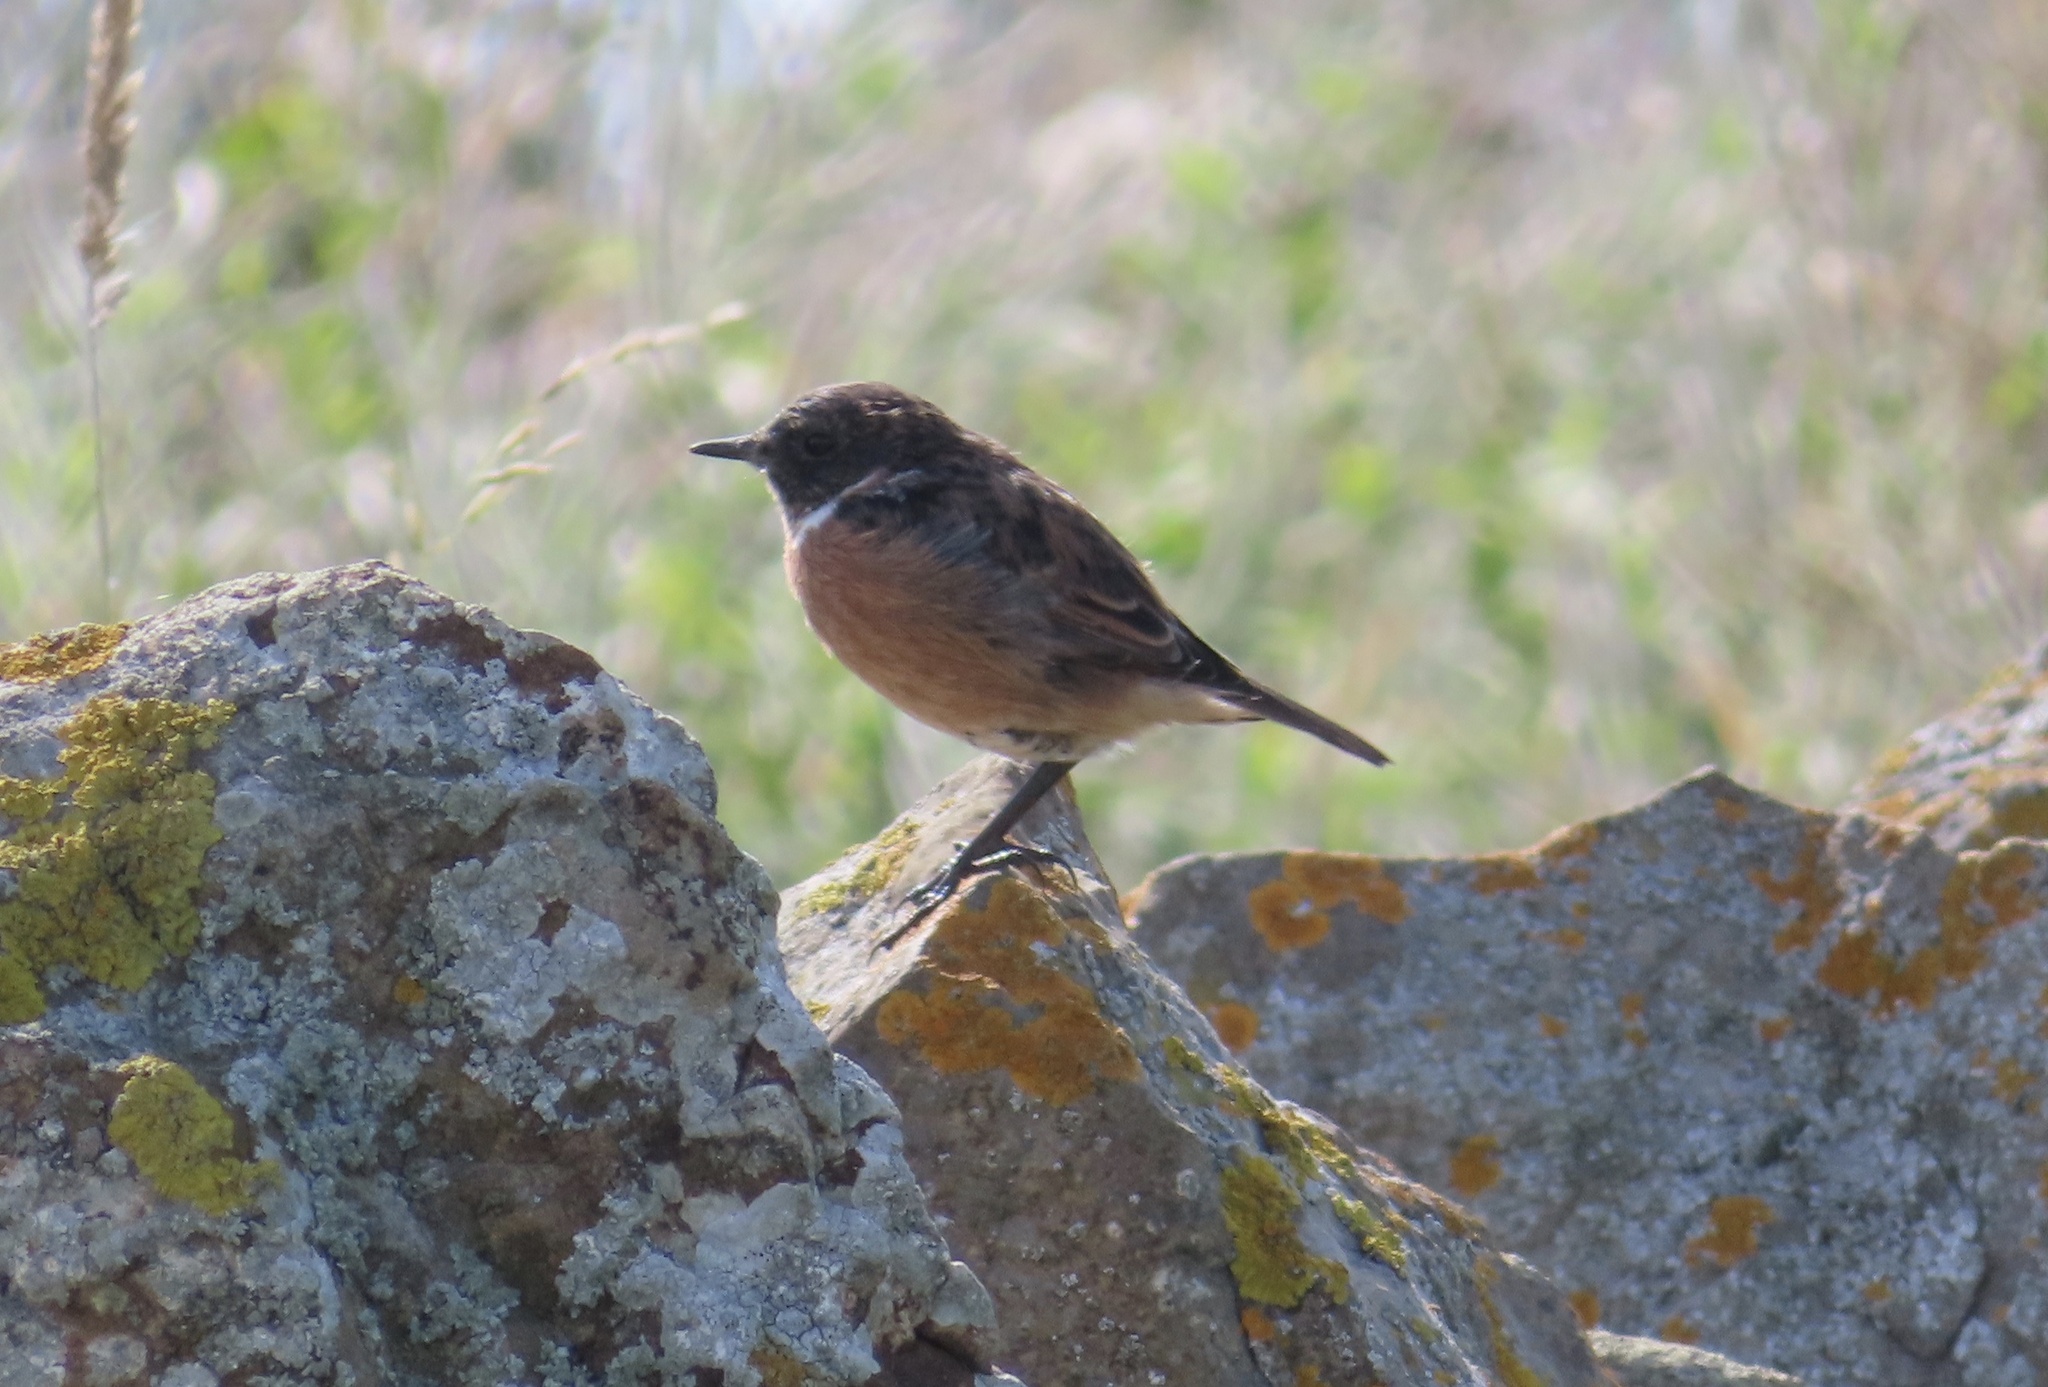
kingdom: Animalia
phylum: Chordata
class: Aves
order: Passeriformes
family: Muscicapidae
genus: Saxicola
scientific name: Saxicola rubicola
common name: European stonechat
